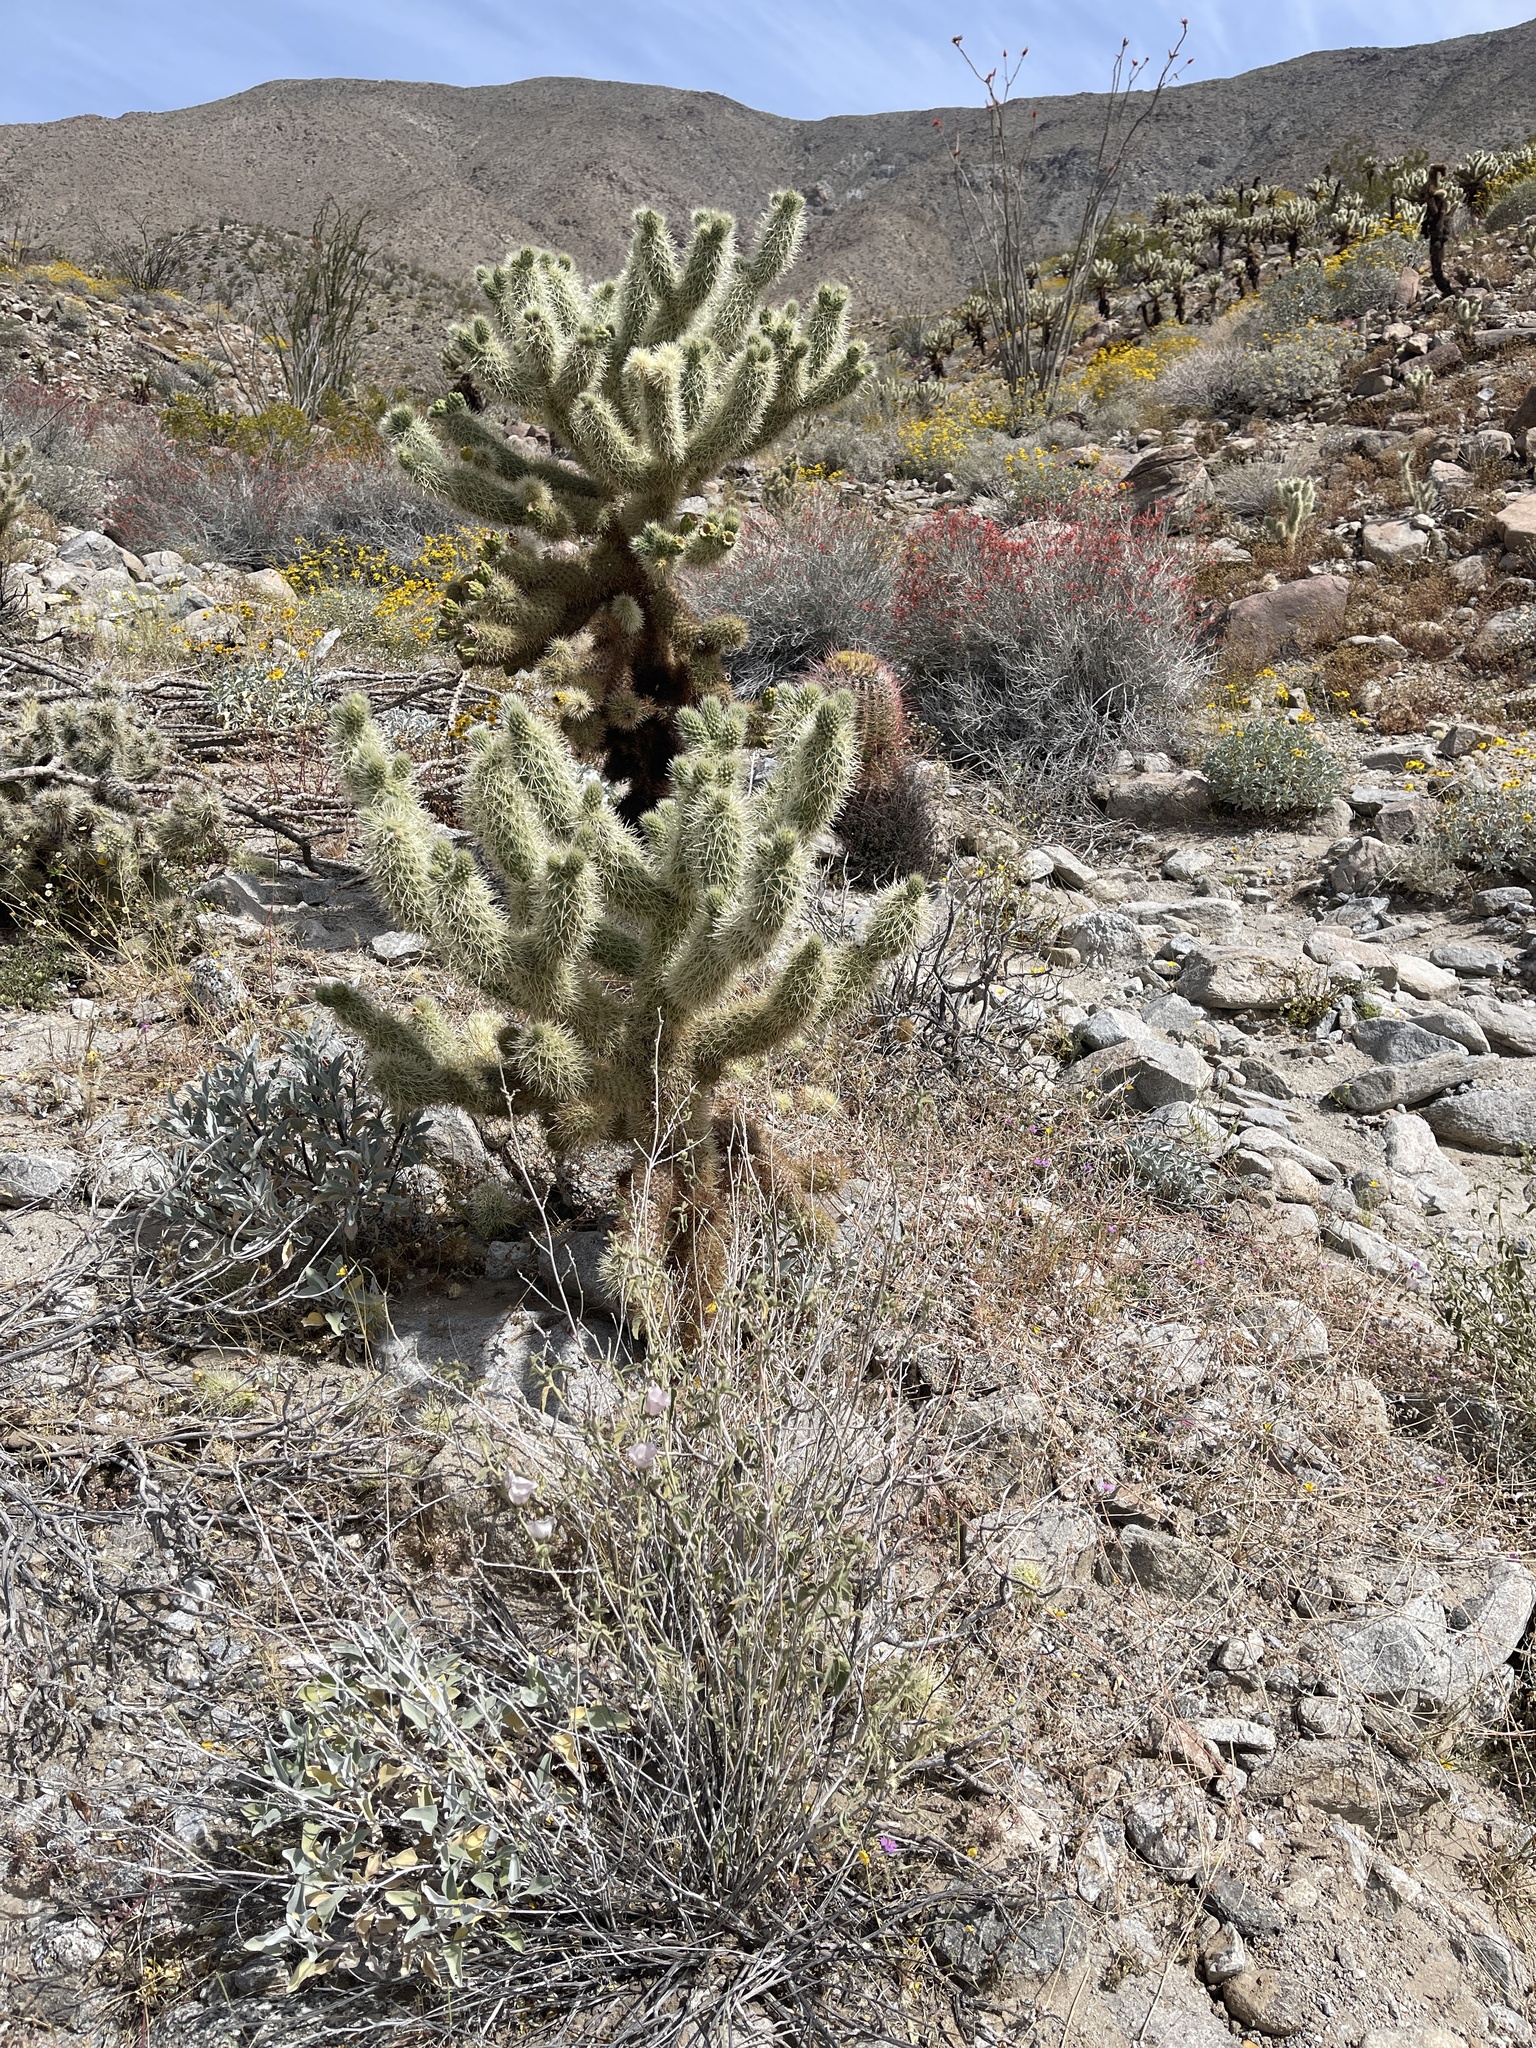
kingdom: Plantae
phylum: Tracheophyta
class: Magnoliopsida
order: Malvales
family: Malvaceae
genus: Hibiscus
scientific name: Hibiscus denudatus
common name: Paleface
